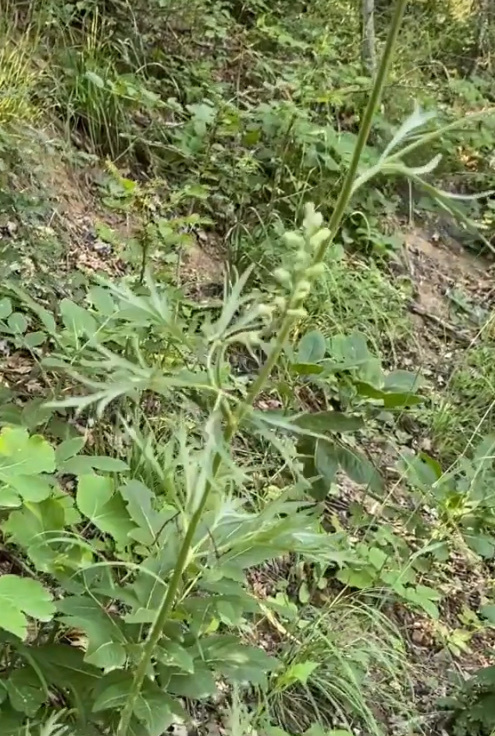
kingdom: Plantae
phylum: Tracheophyta
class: Magnoliopsida
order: Ranunculales
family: Ranunculaceae
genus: Delphinium
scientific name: Delphinium fissum
